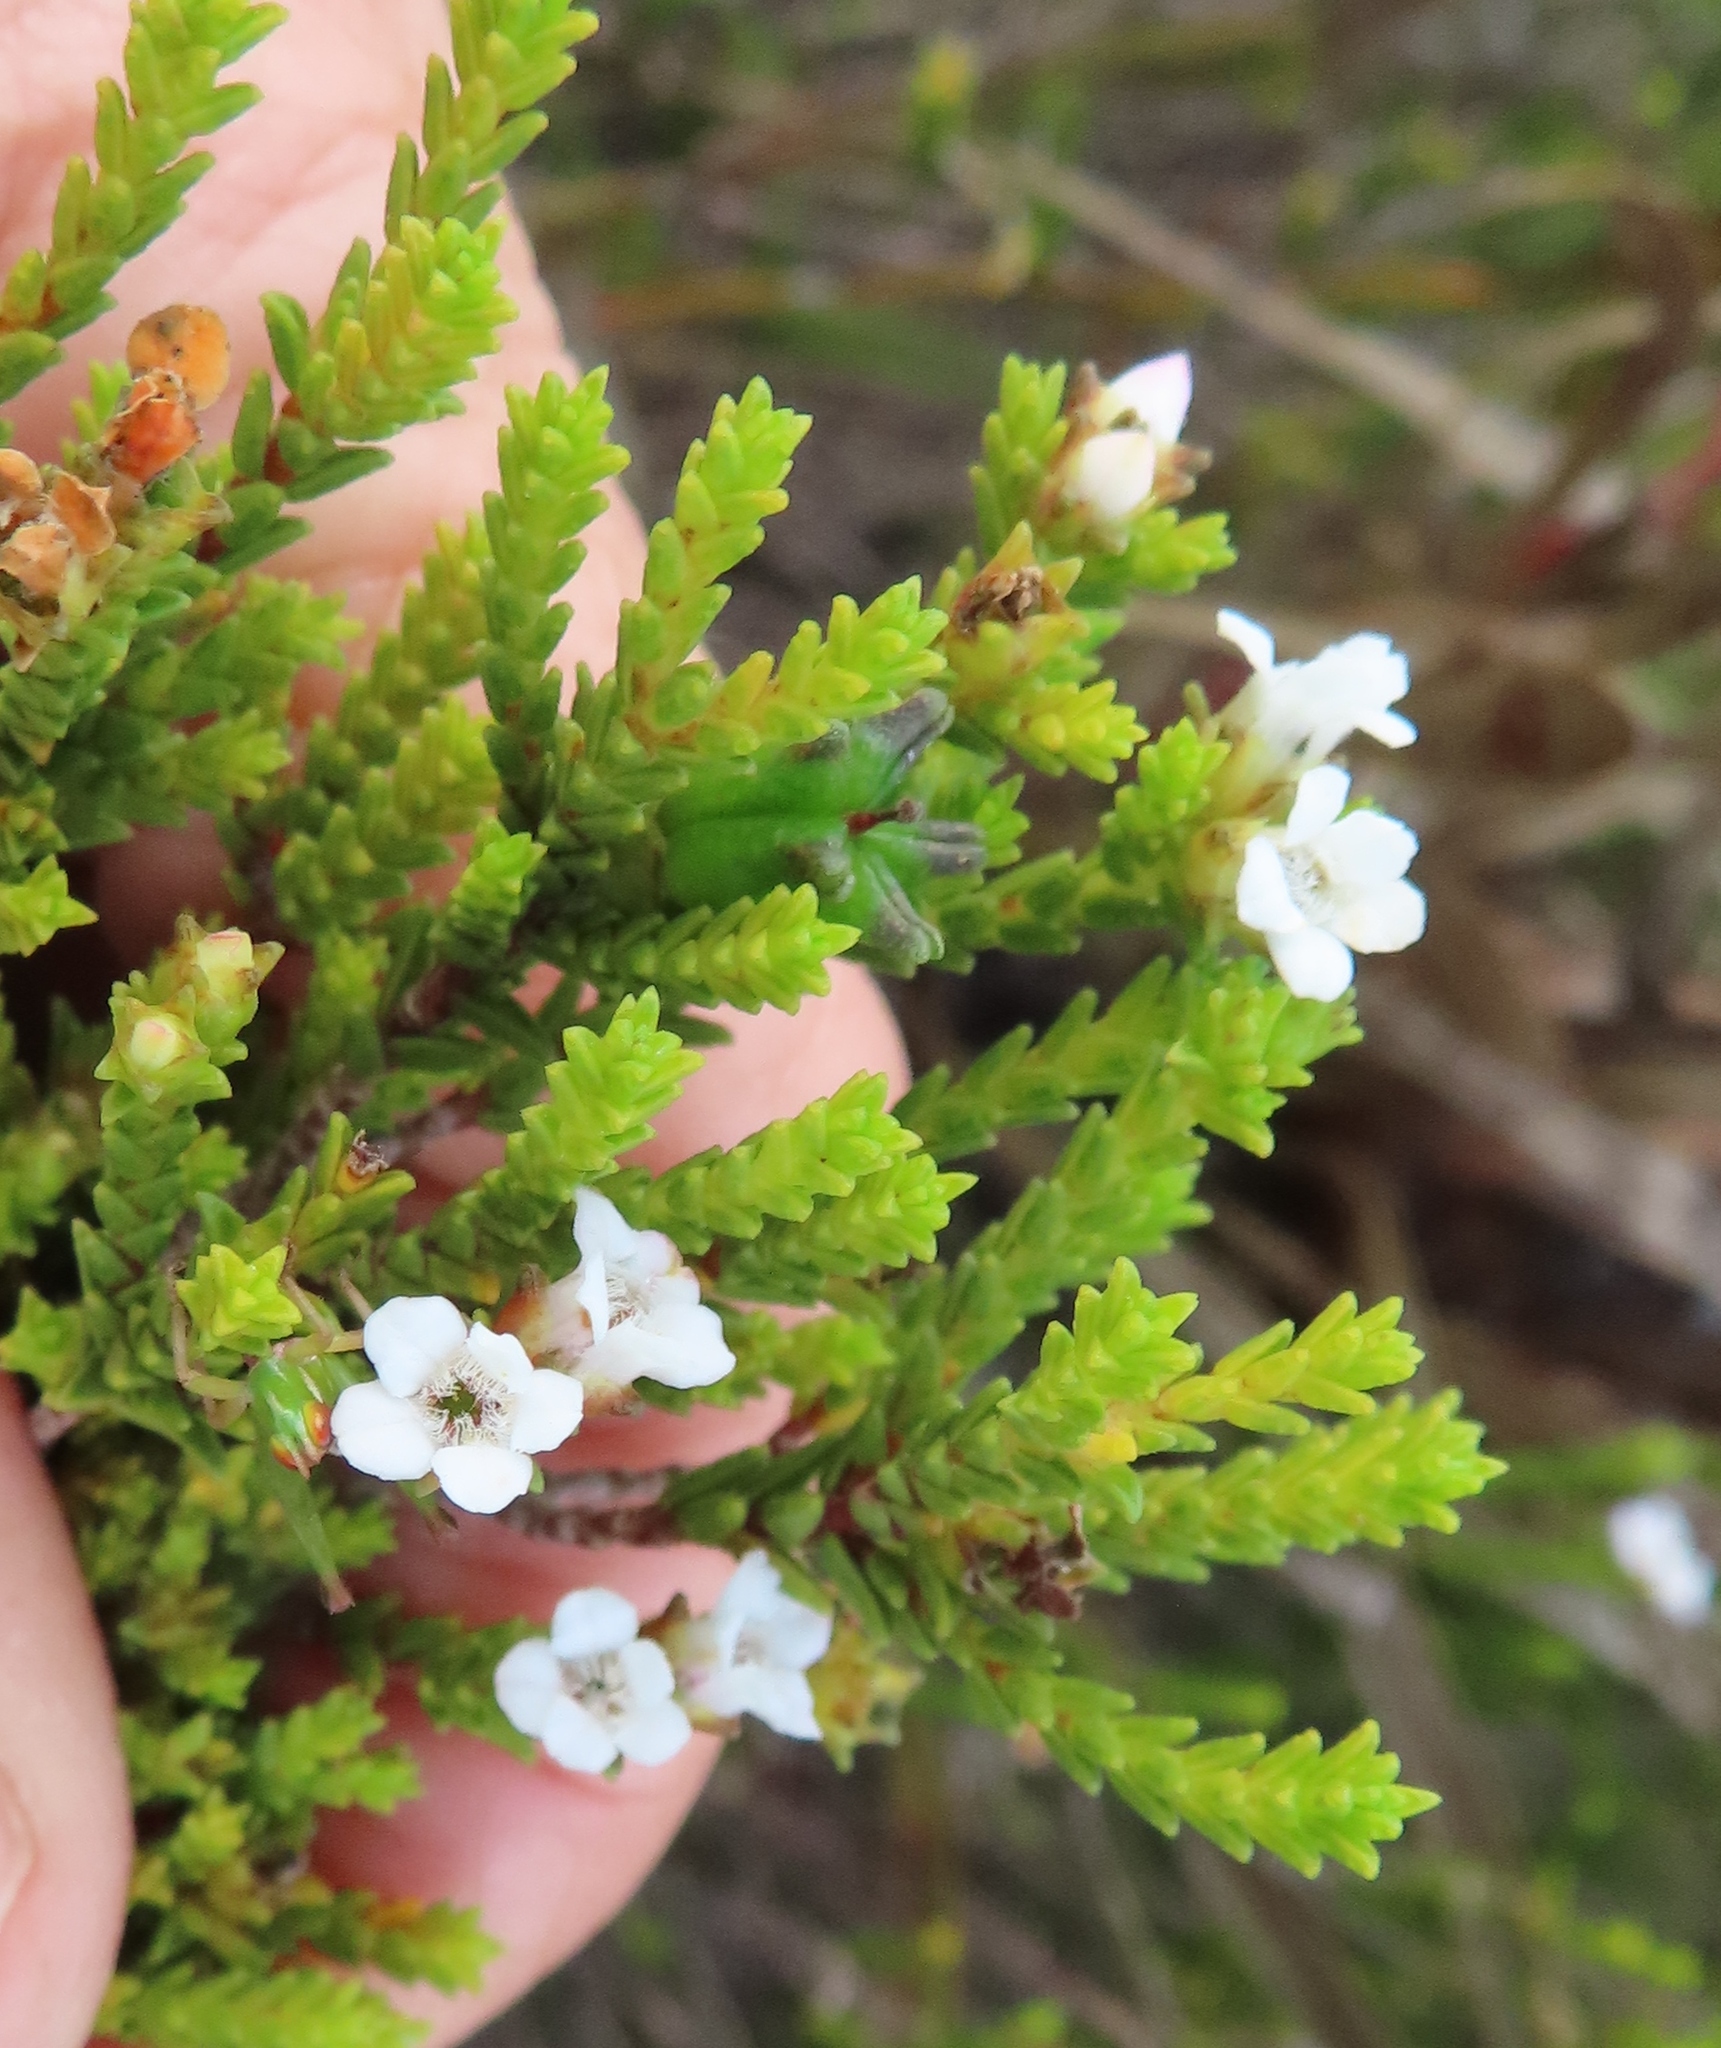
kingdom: Plantae
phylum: Tracheophyta
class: Magnoliopsida
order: Sapindales
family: Rutaceae
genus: Euchaetis
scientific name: Euchaetis burchellii
